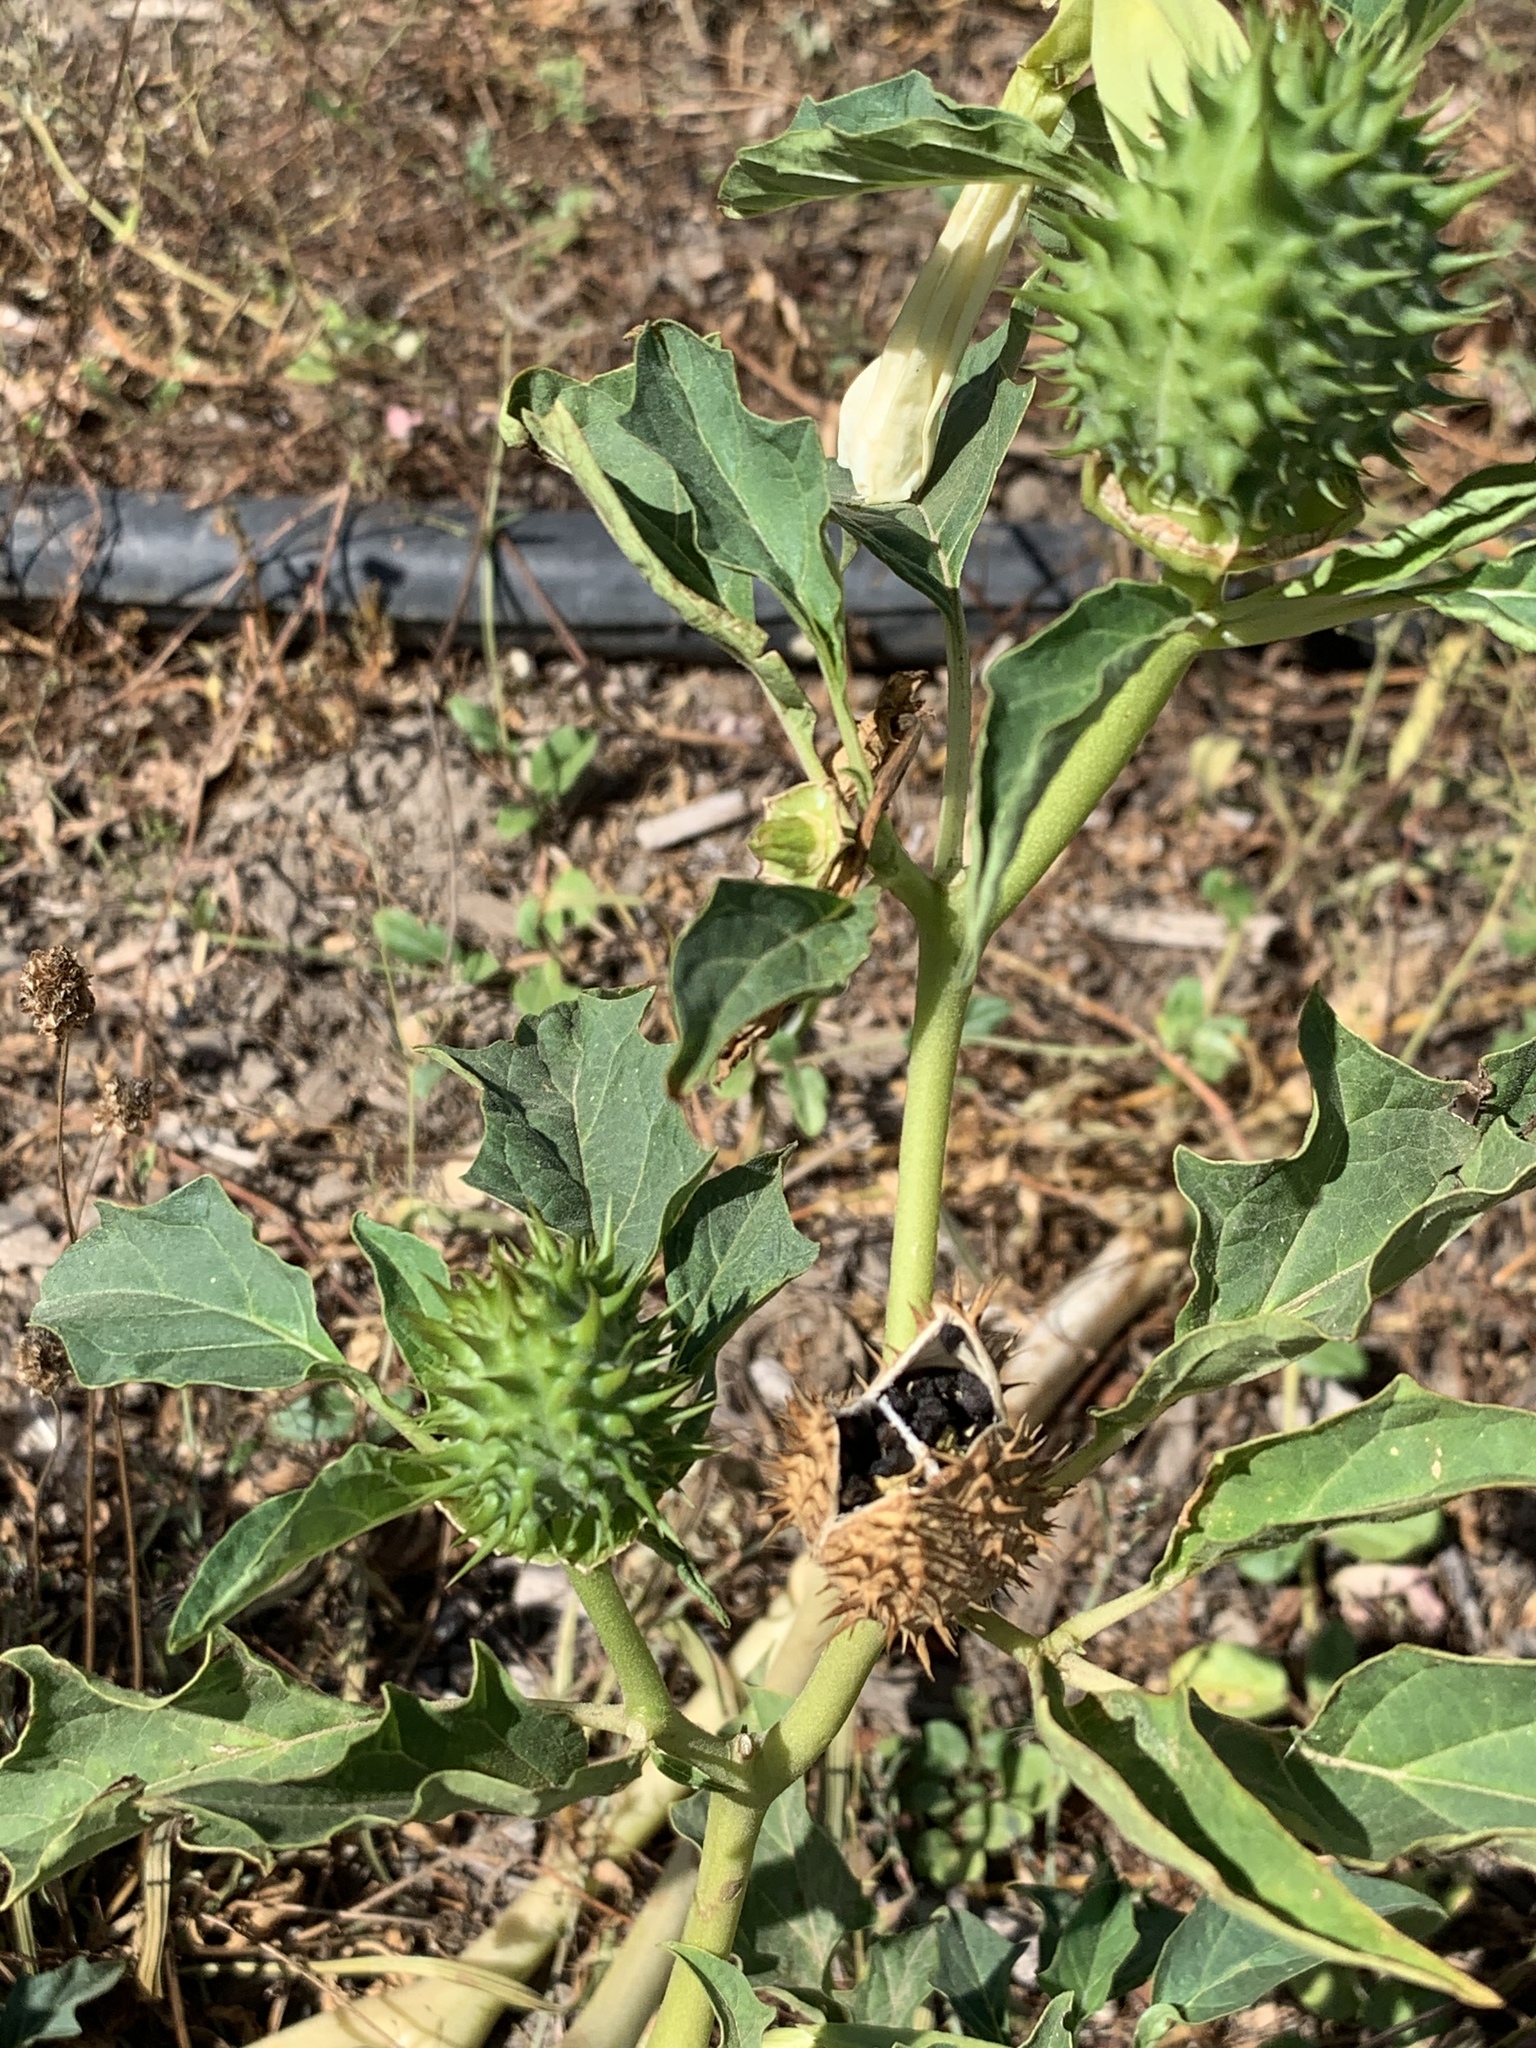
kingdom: Plantae
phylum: Tracheophyta
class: Magnoliopsida
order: Solanales
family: Solanaceae
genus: Datura
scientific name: Datura stramonium
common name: Thorn-apple
